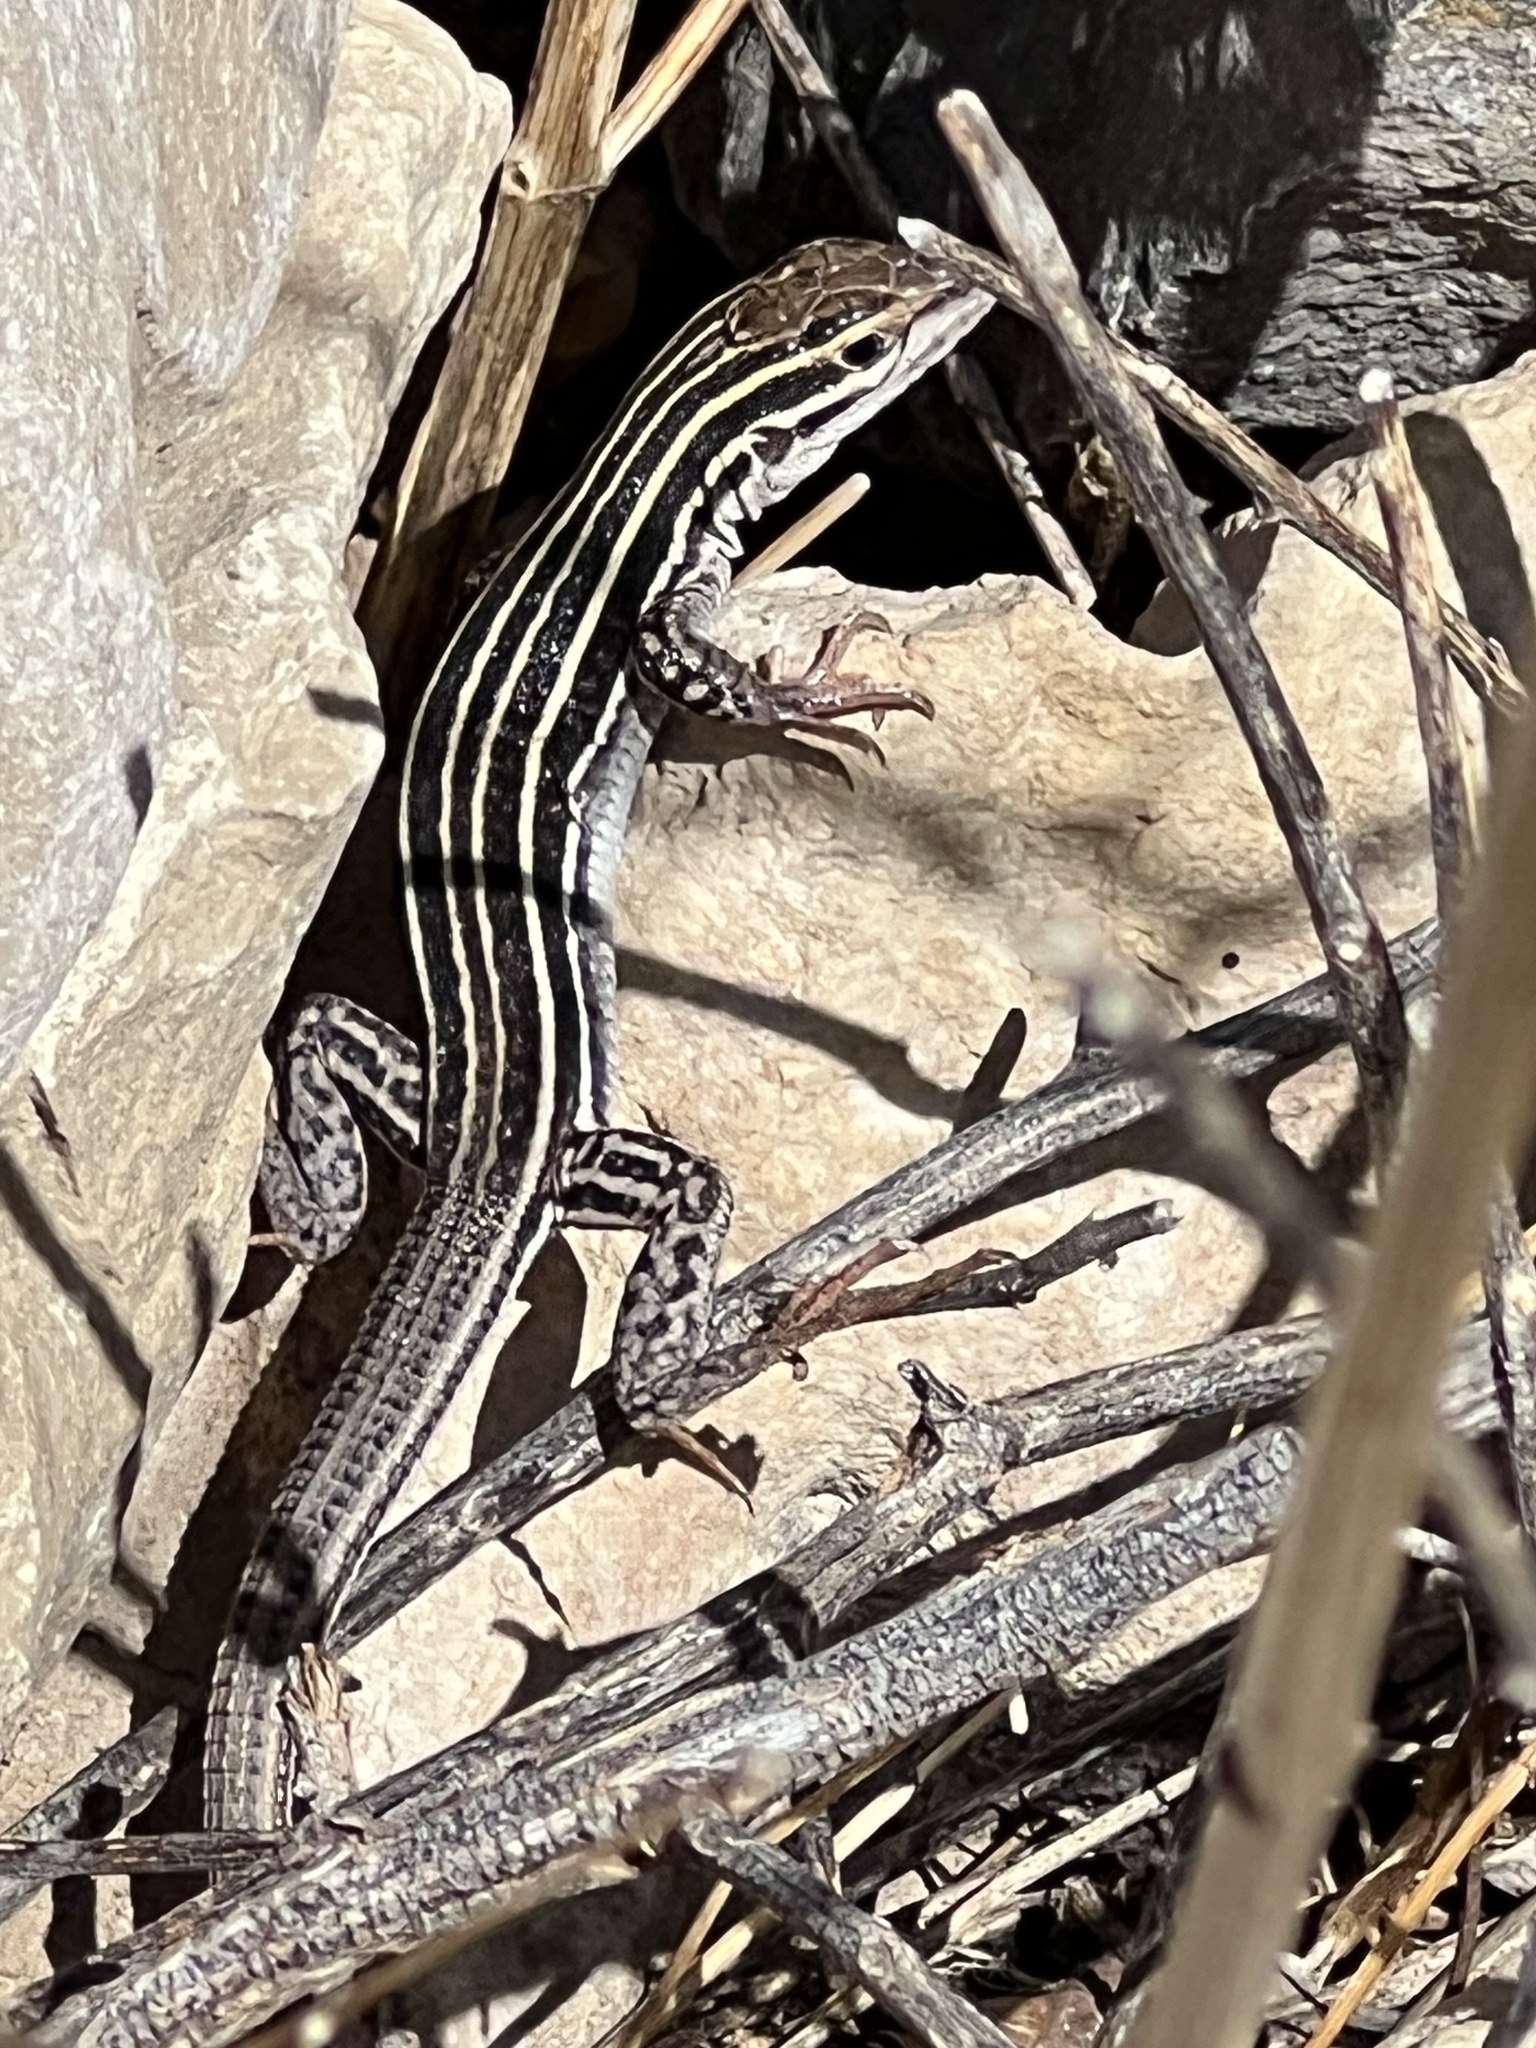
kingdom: Animalia
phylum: Chordata
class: Squamata
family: Teiidae
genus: Aspidoscelis
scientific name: Aspidoscelis exsanguis
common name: Chihuahuan spotted whiptail
